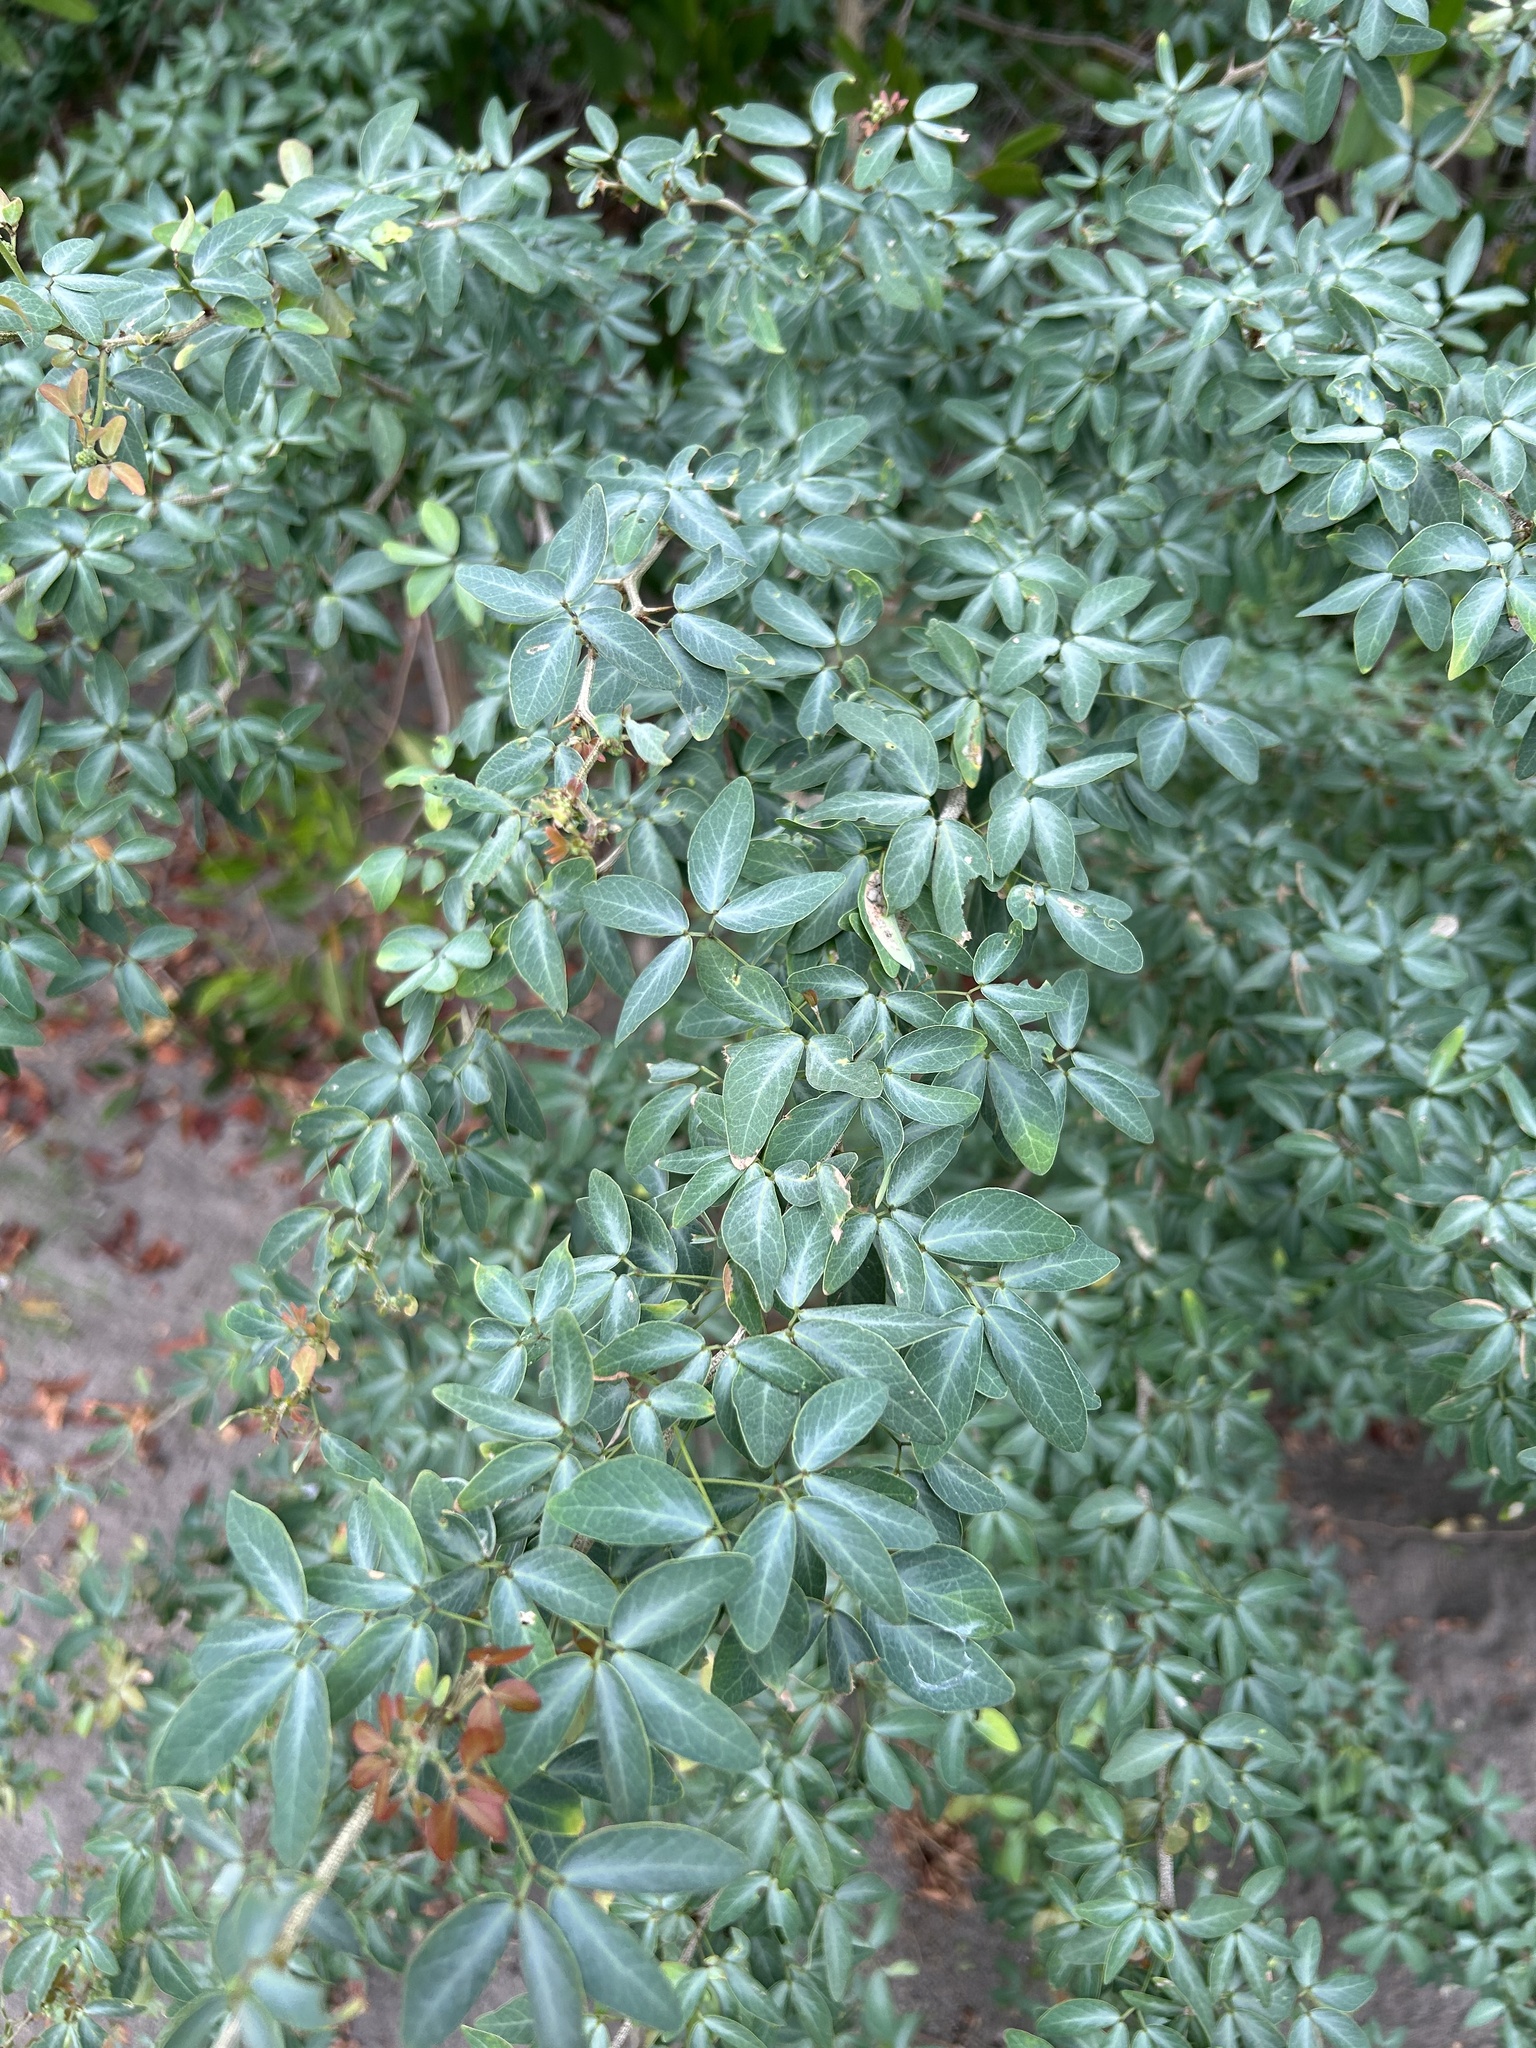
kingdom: Plantae
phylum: Tracheophyta
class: Magnoliopsida
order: Fabales
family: Fabaceae
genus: Pithecellobium
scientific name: Pithecellobium dulce
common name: Monkeypod
